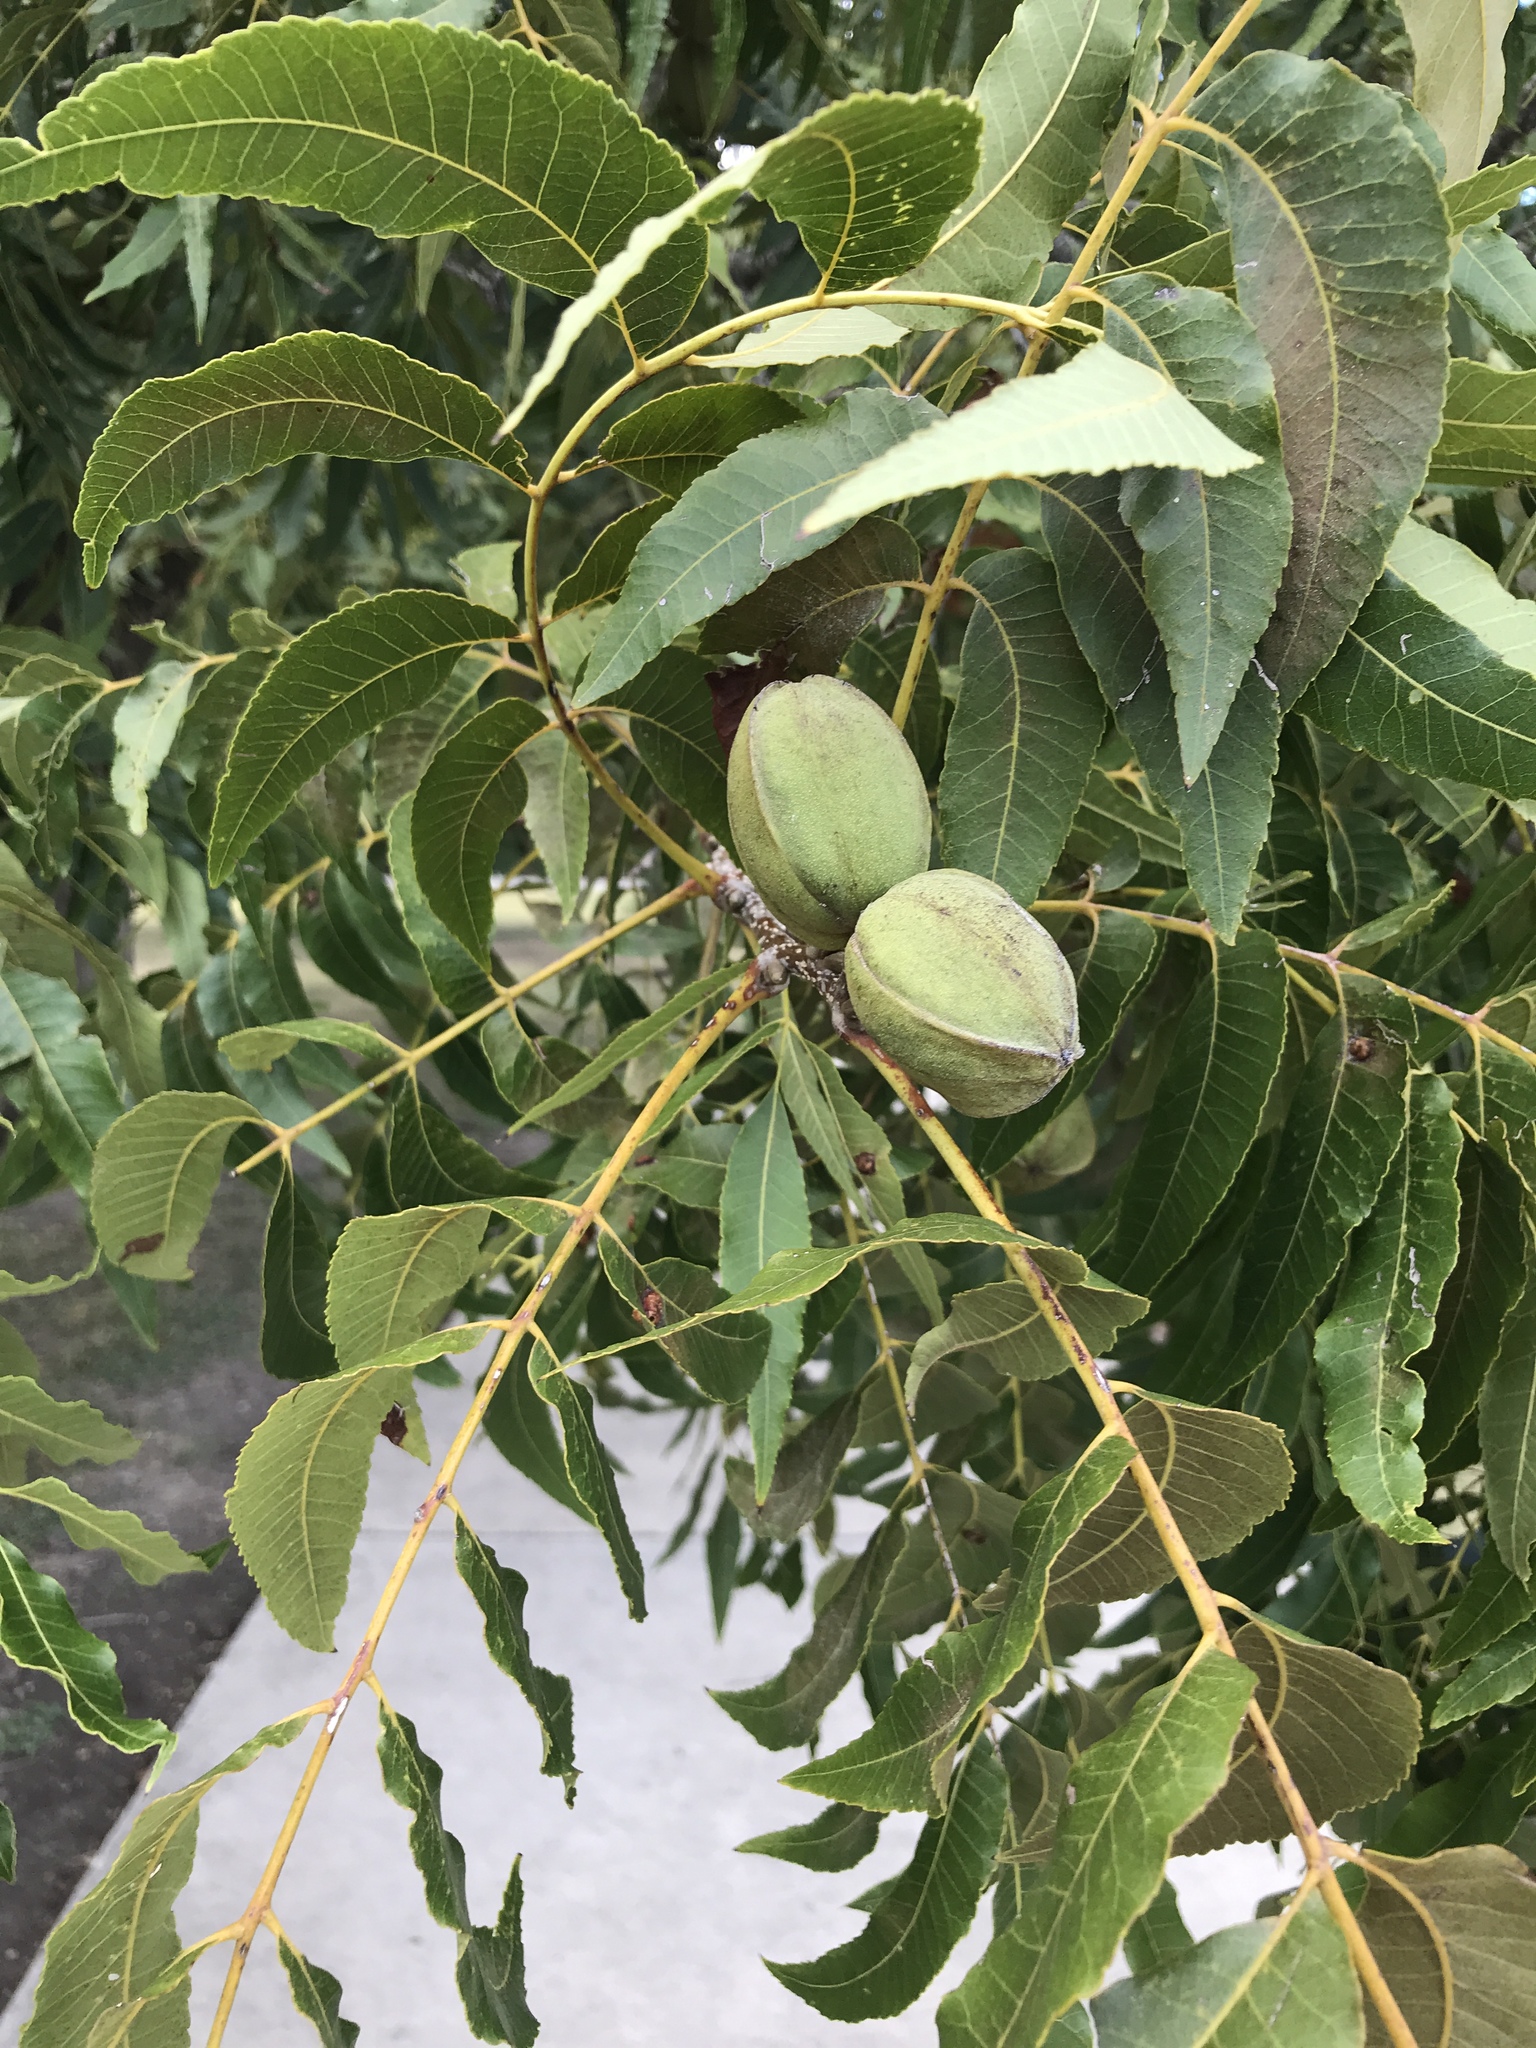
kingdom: Plantae
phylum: Tracheophyta
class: Magnoliopsida
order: Fagales
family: Juglandaceae
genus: Carya
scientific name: Carya illinoinensis
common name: Pecan
